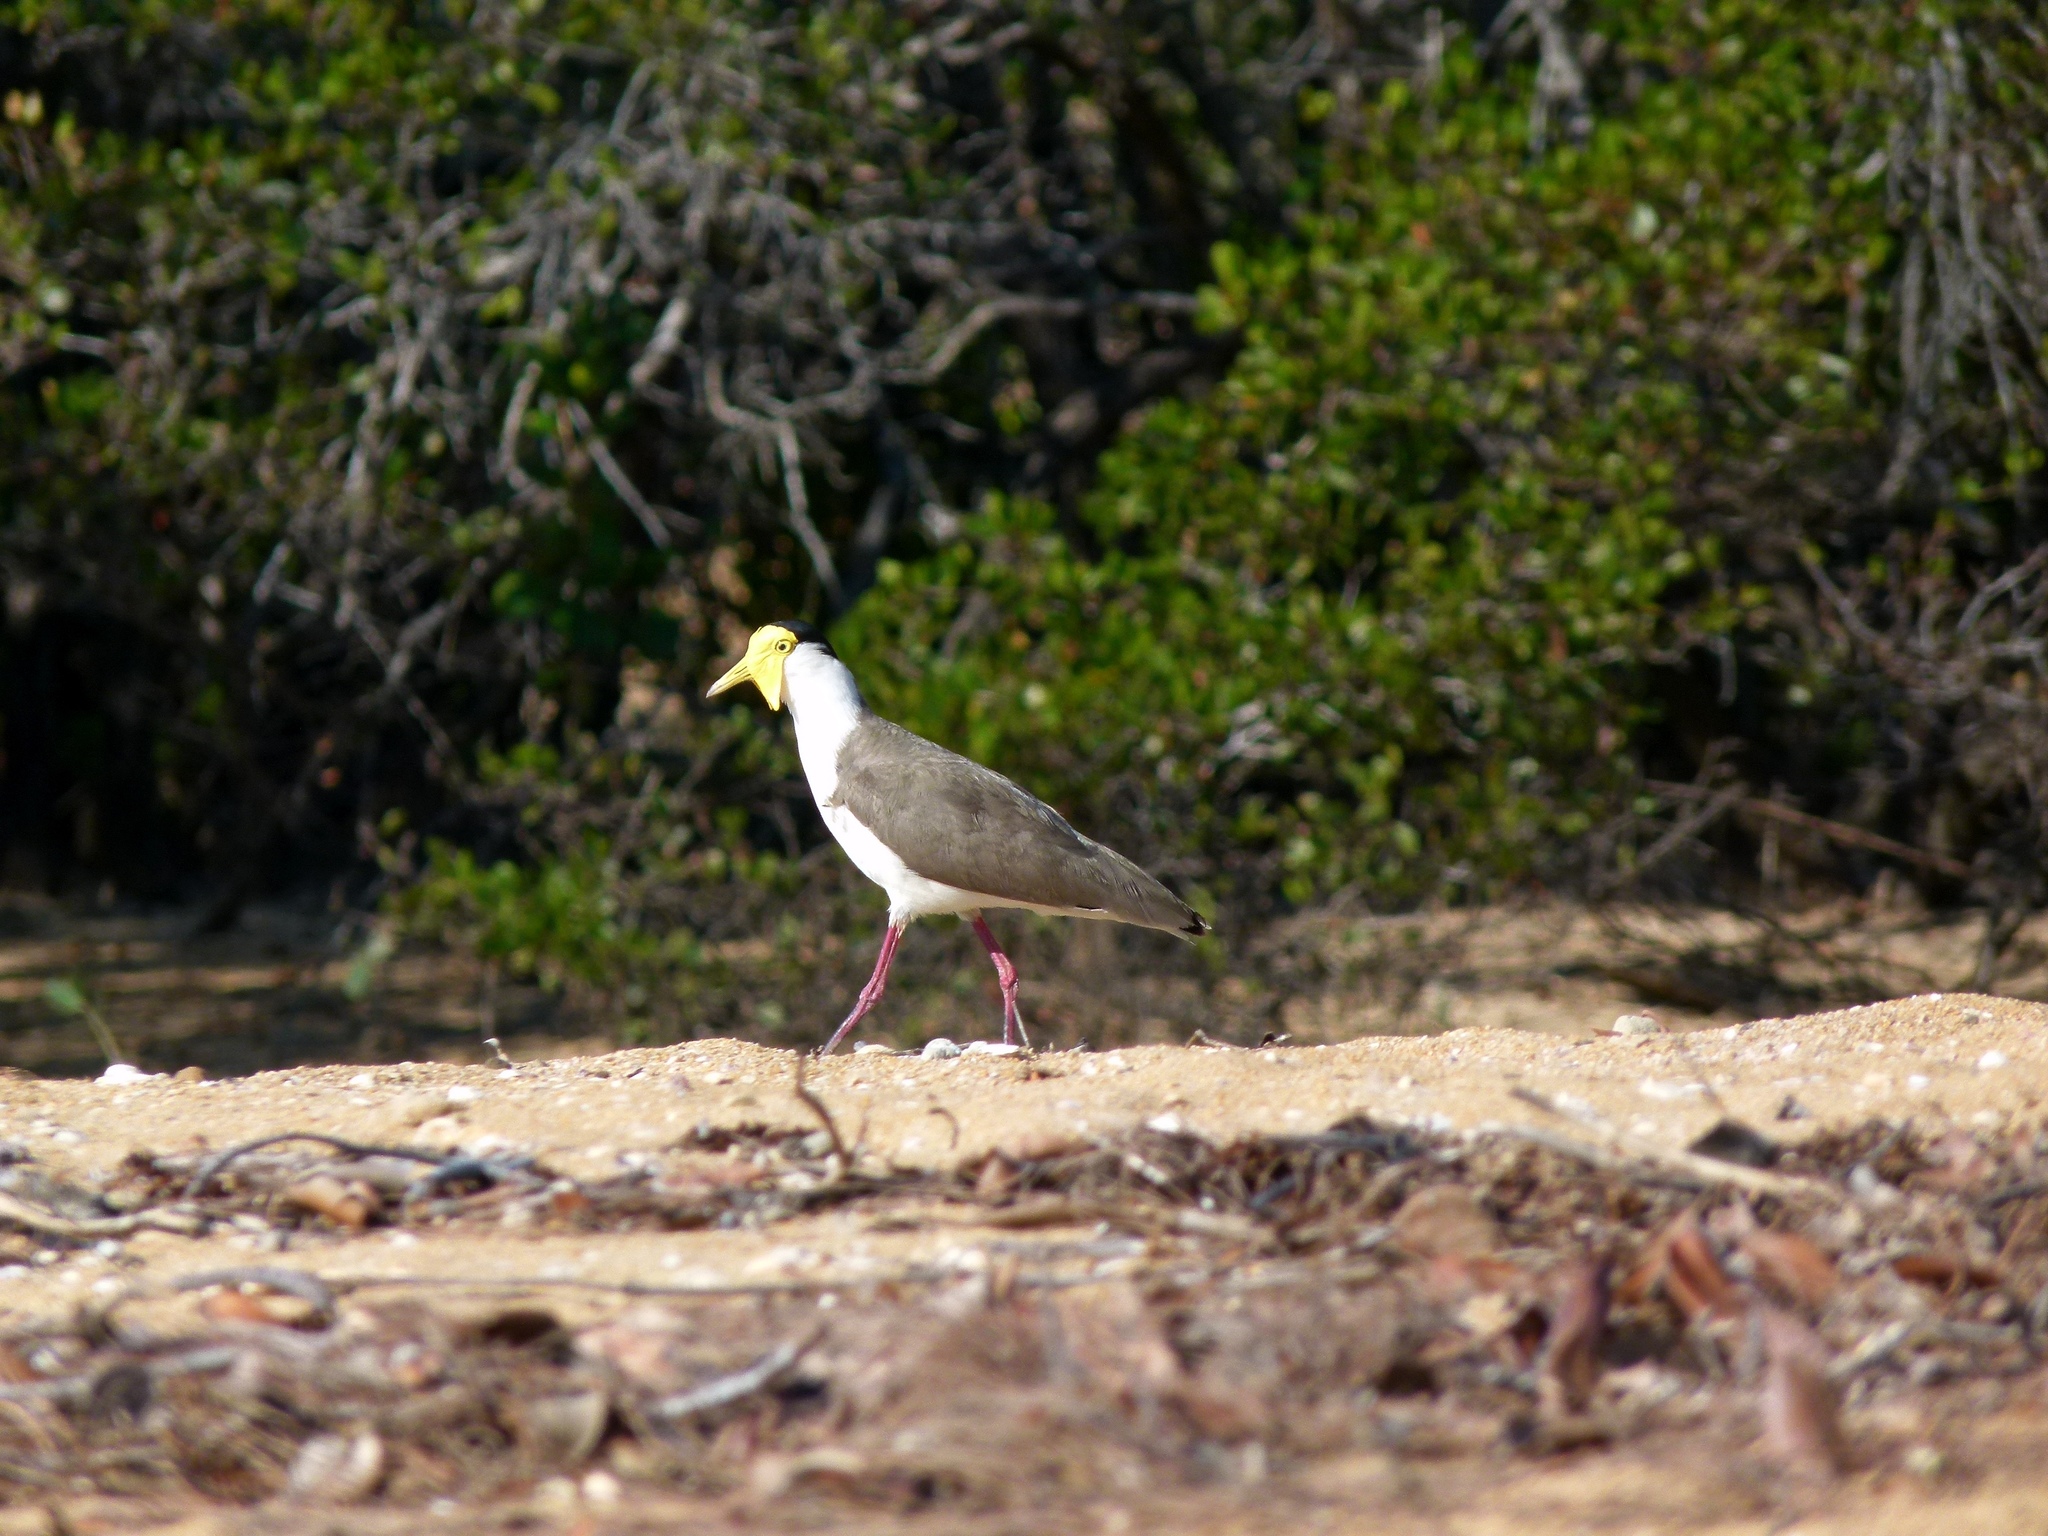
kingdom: Animalia
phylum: Chordata
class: Aves
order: Charadriiformes
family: Charadriidae
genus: Vanellus
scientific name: Vanellus miles
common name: Masked lapwing
